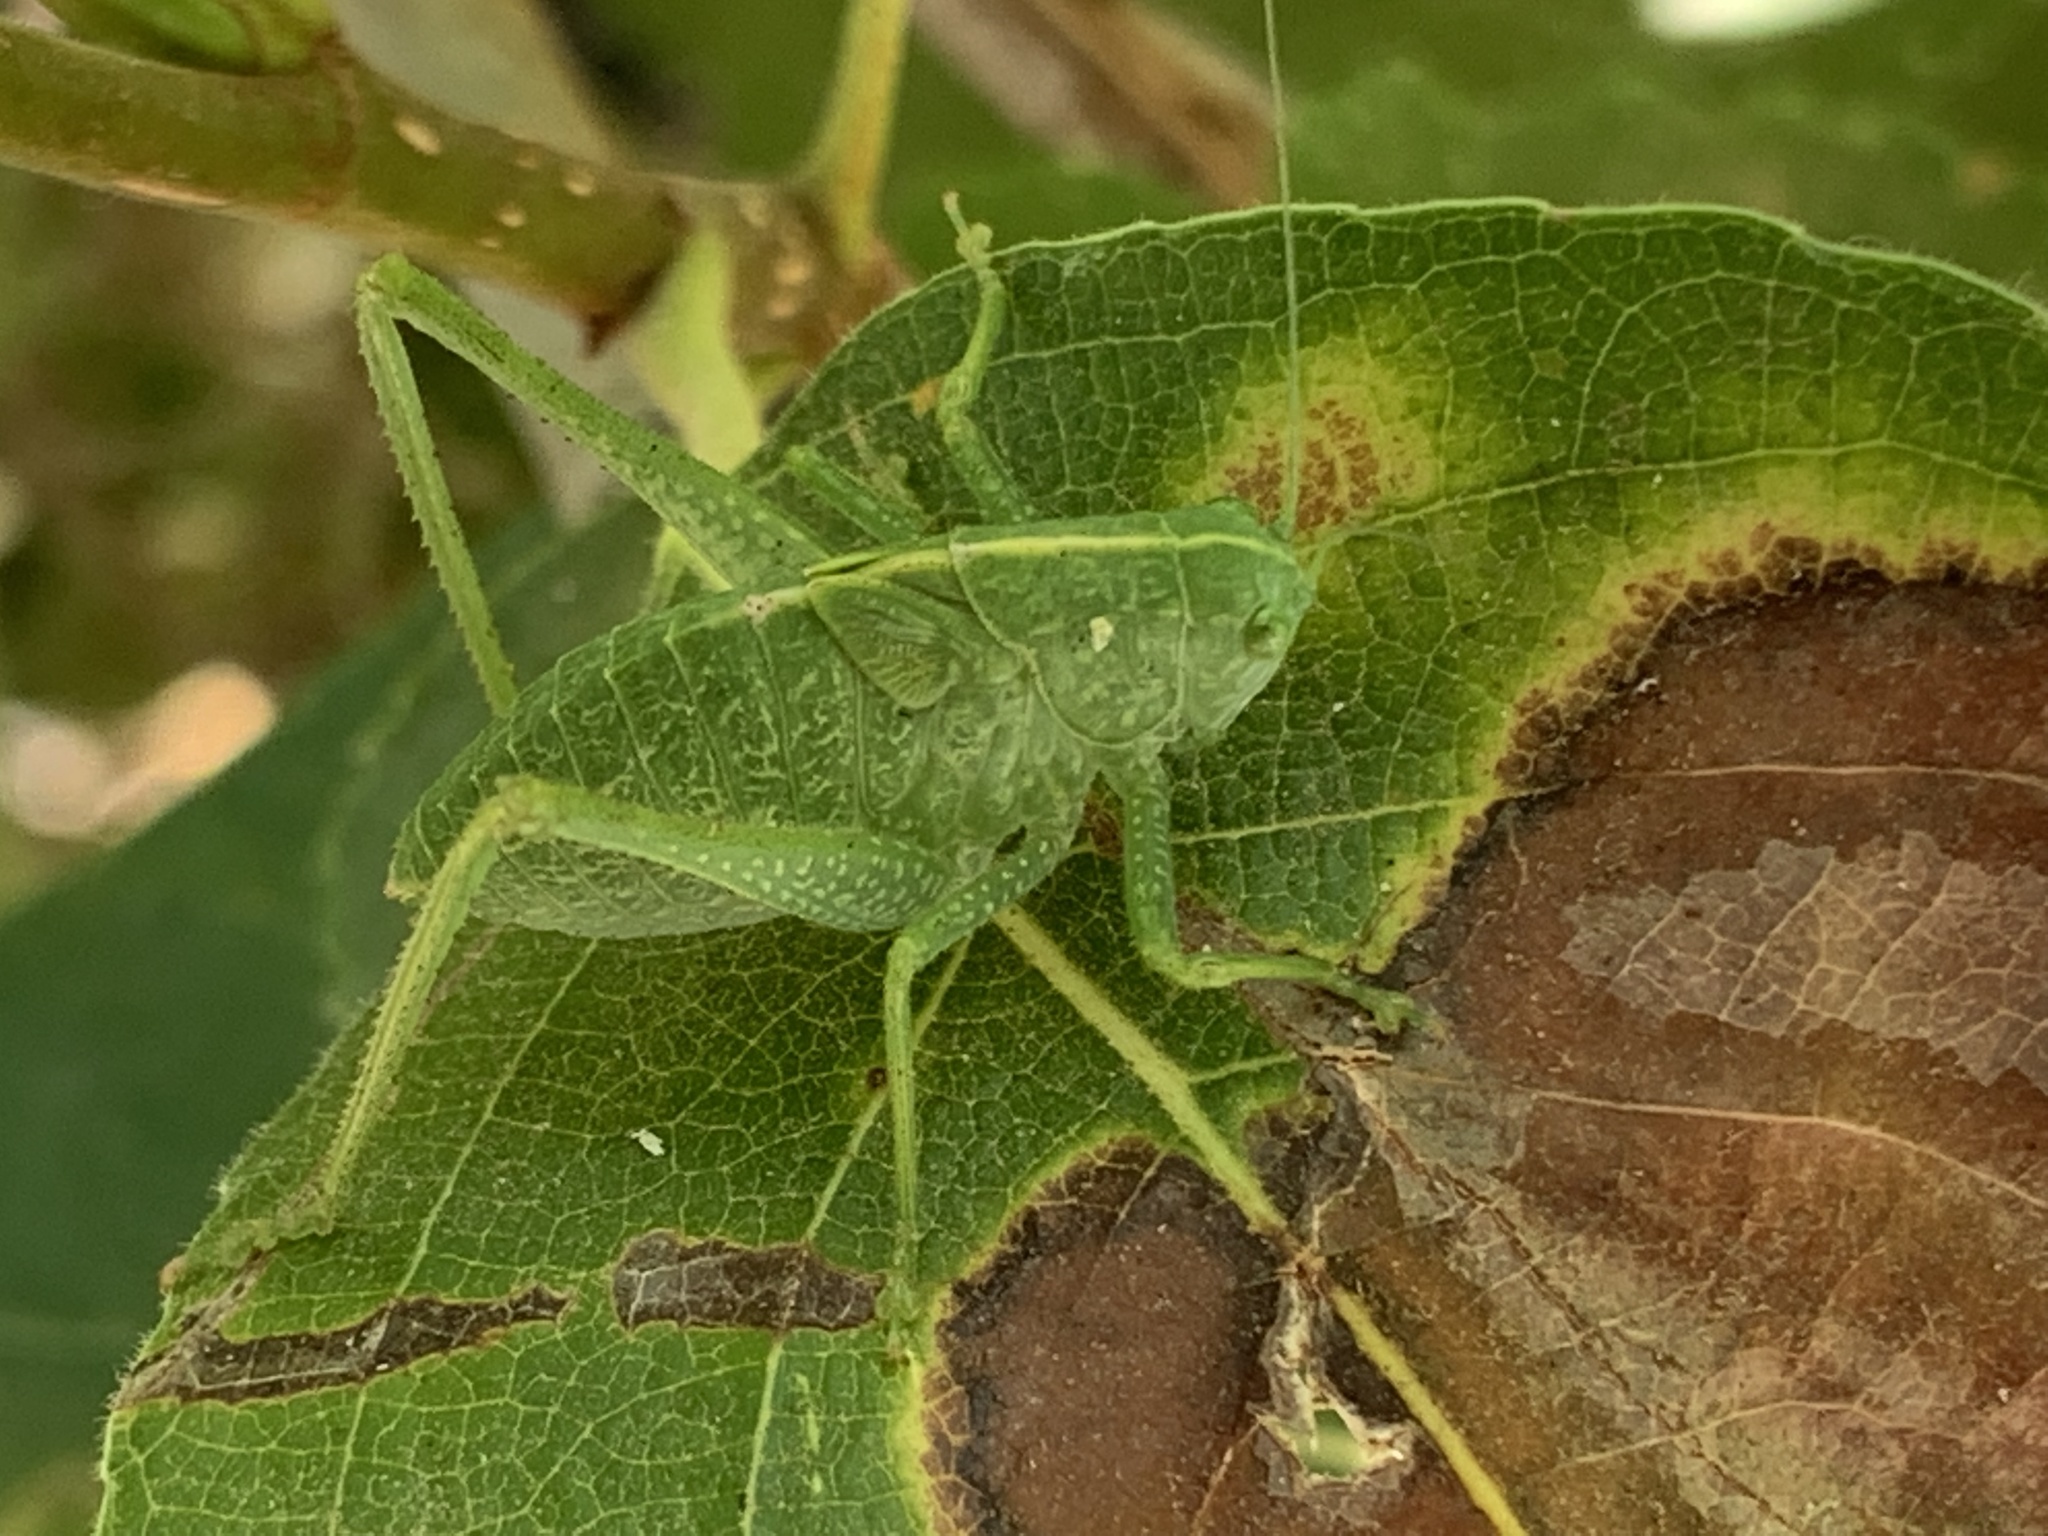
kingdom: Animalia
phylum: Arthropoda
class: Insecta
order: Orthoptera
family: Tettigoniidae
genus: Microcentrum
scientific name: Microcentrum
